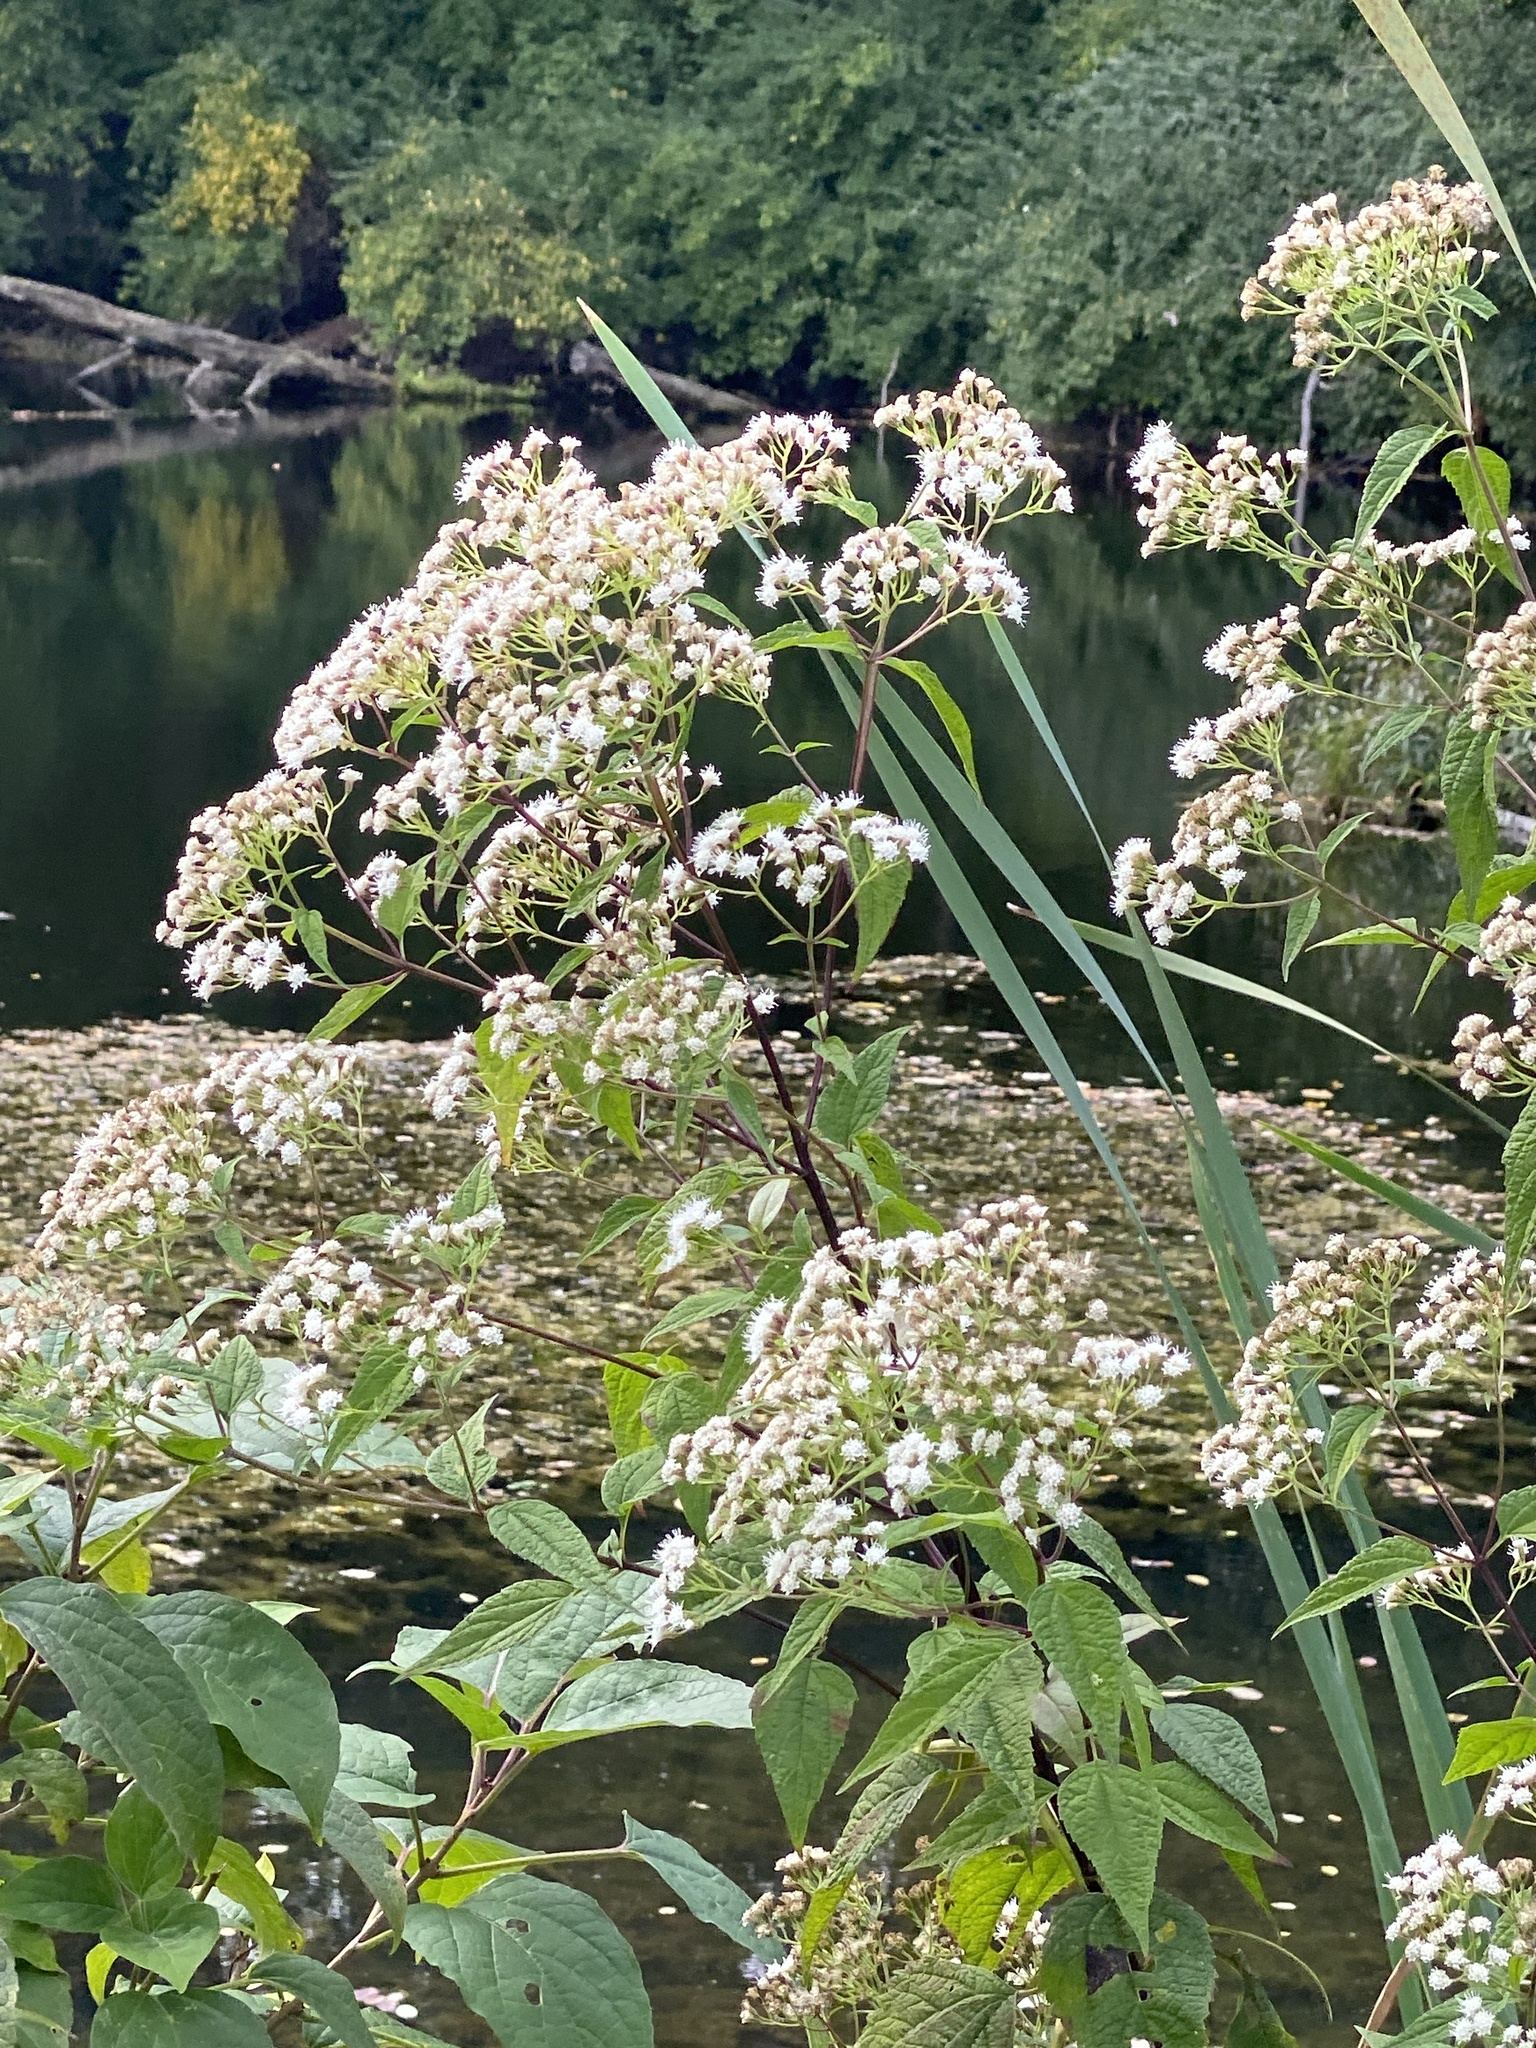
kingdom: Plantae
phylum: Tracheophyta
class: Magnoliopsida
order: Asterales
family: Asteraceae
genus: Ageratina
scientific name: Ageratina altissima
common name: White snakeroot
